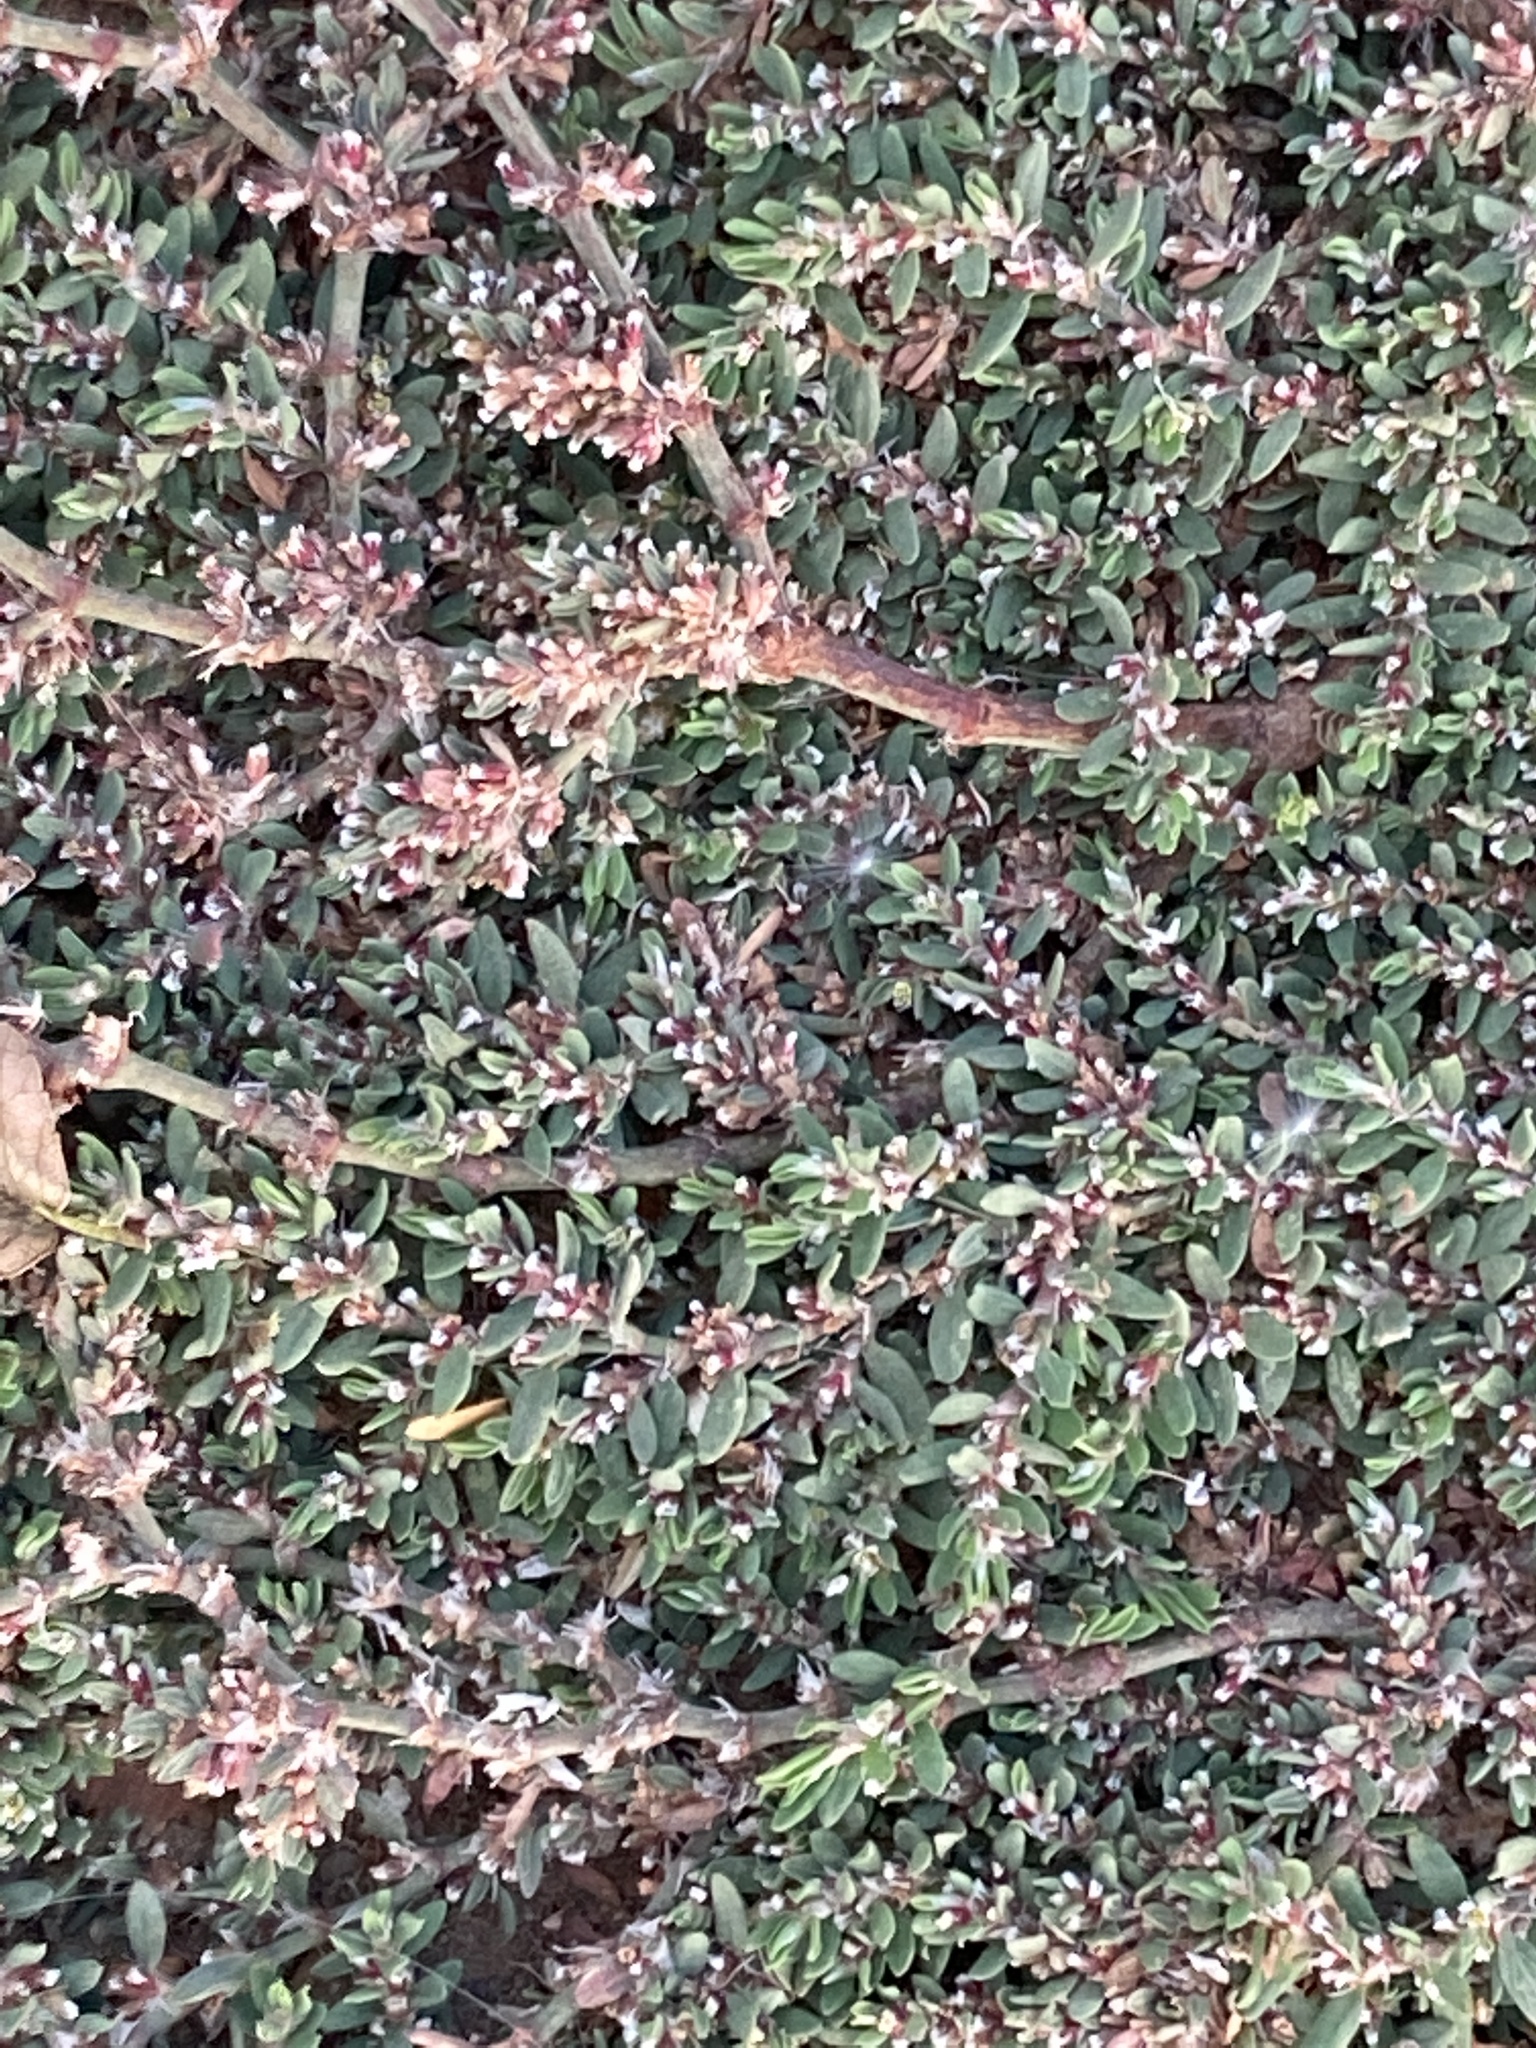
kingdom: Plantae
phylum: Tracheophyta
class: Magnoliopsida
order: Caryophyllales
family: Polygonaceae
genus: Polygonum
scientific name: Polygonum arenastrum
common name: Equal-leaved knotgrass
